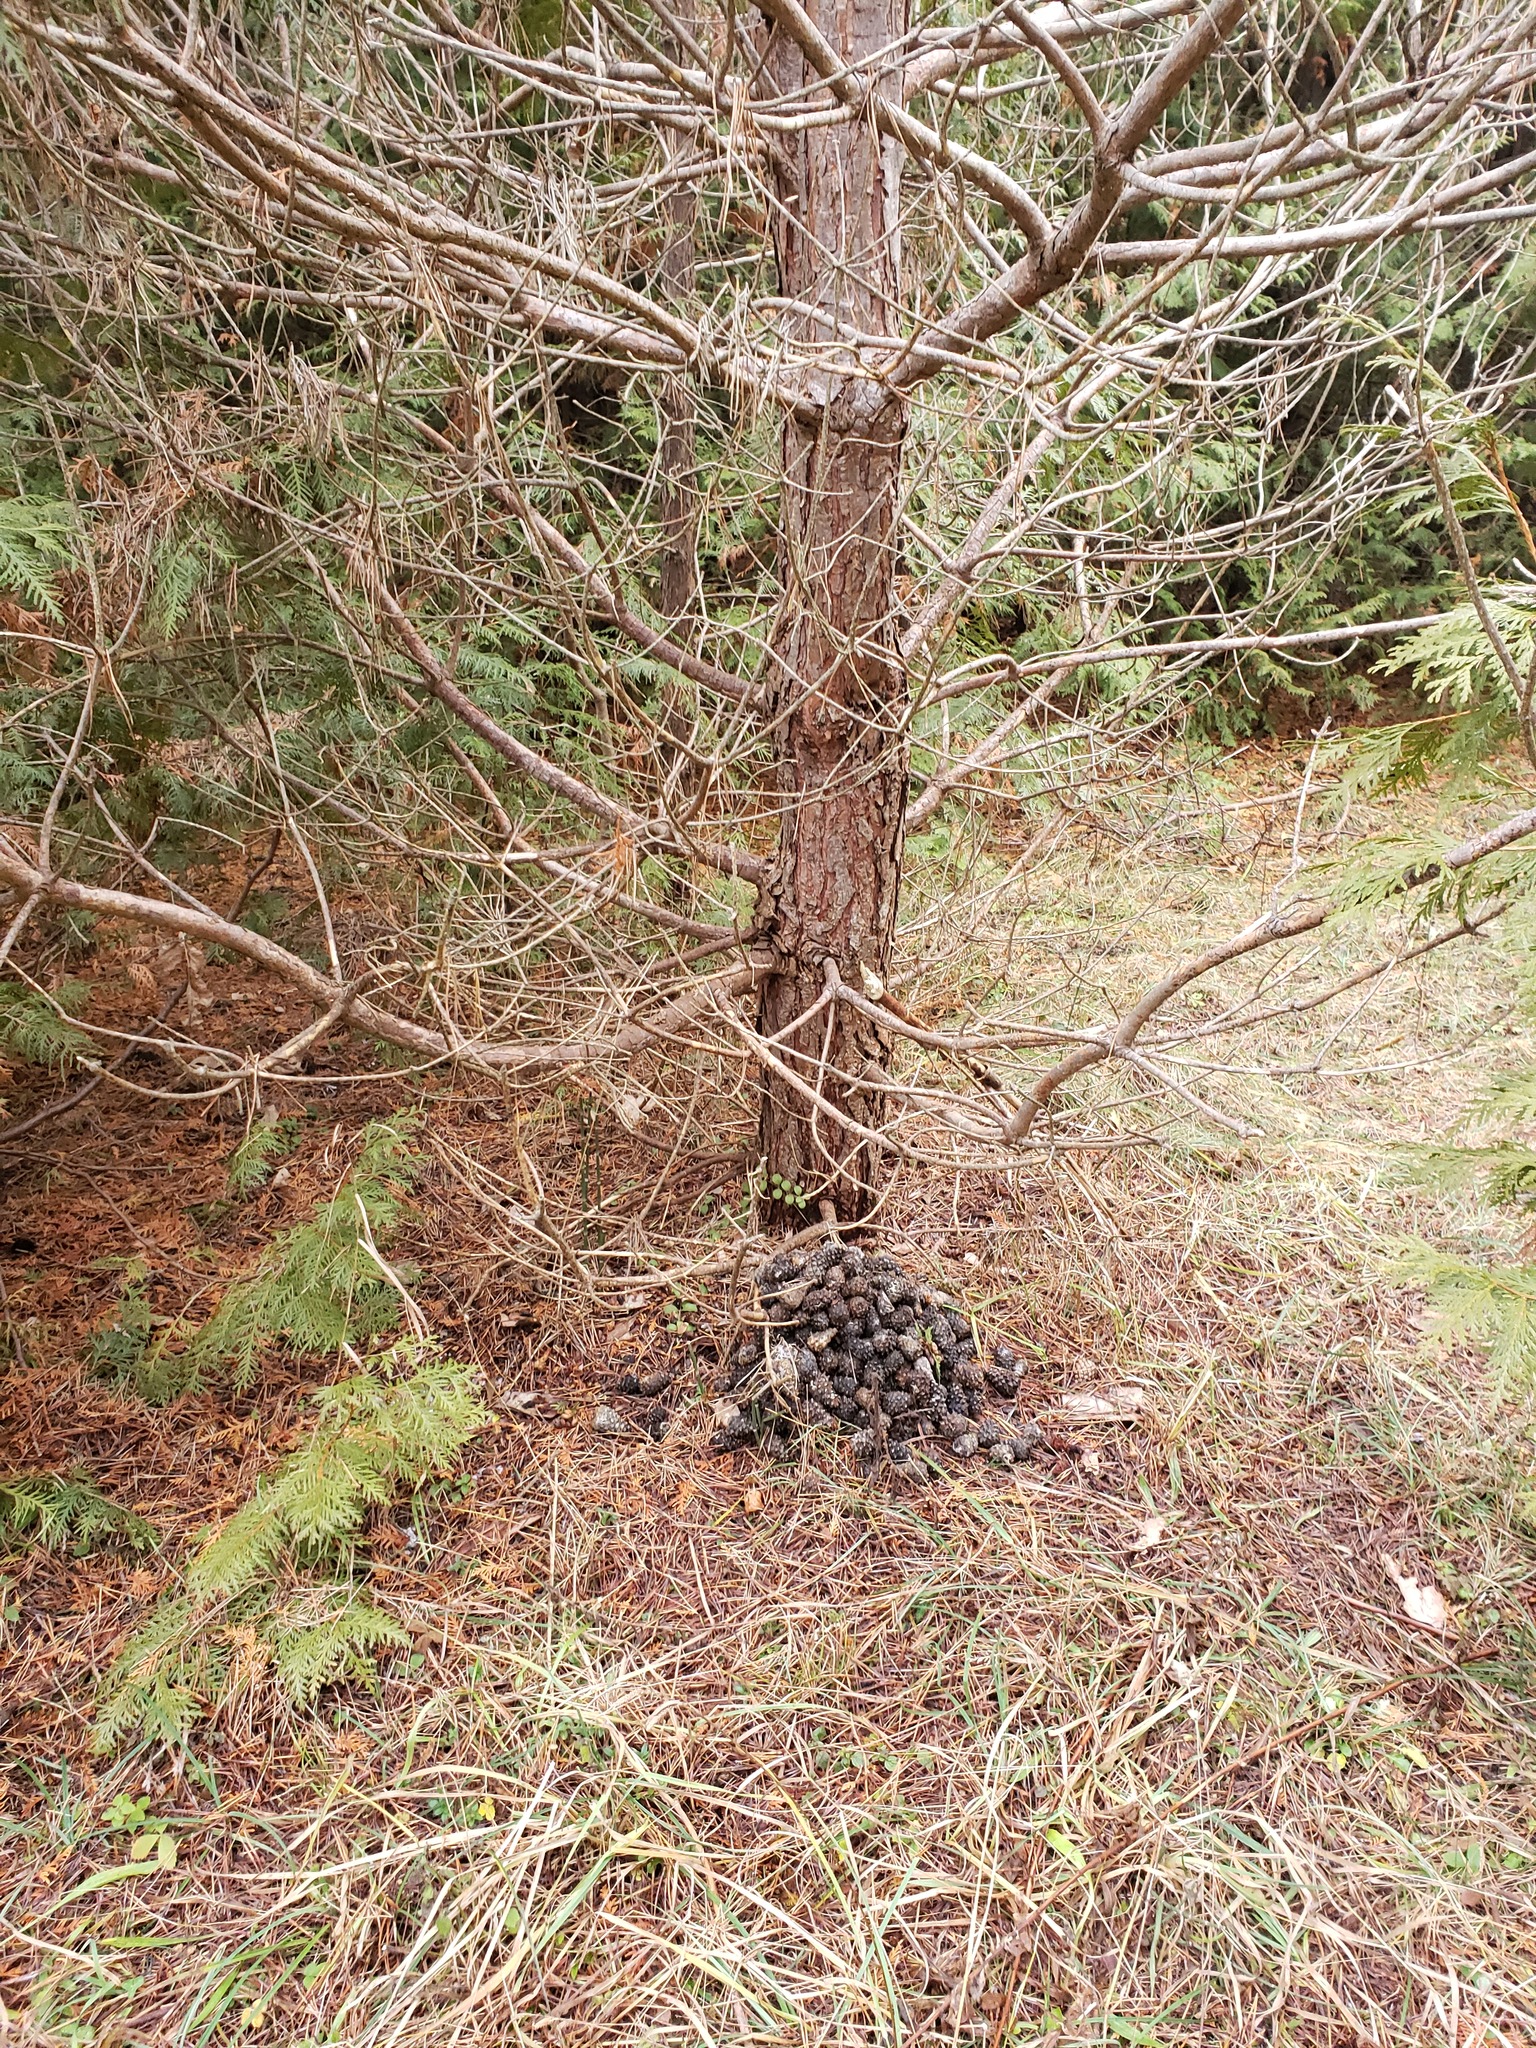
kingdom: Animalia
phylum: Chordata
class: Mammalia
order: Rodentia
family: Sciuridae
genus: Tamiasciurus
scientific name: Tamiasciurus hudsonicus
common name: Red squirrel
